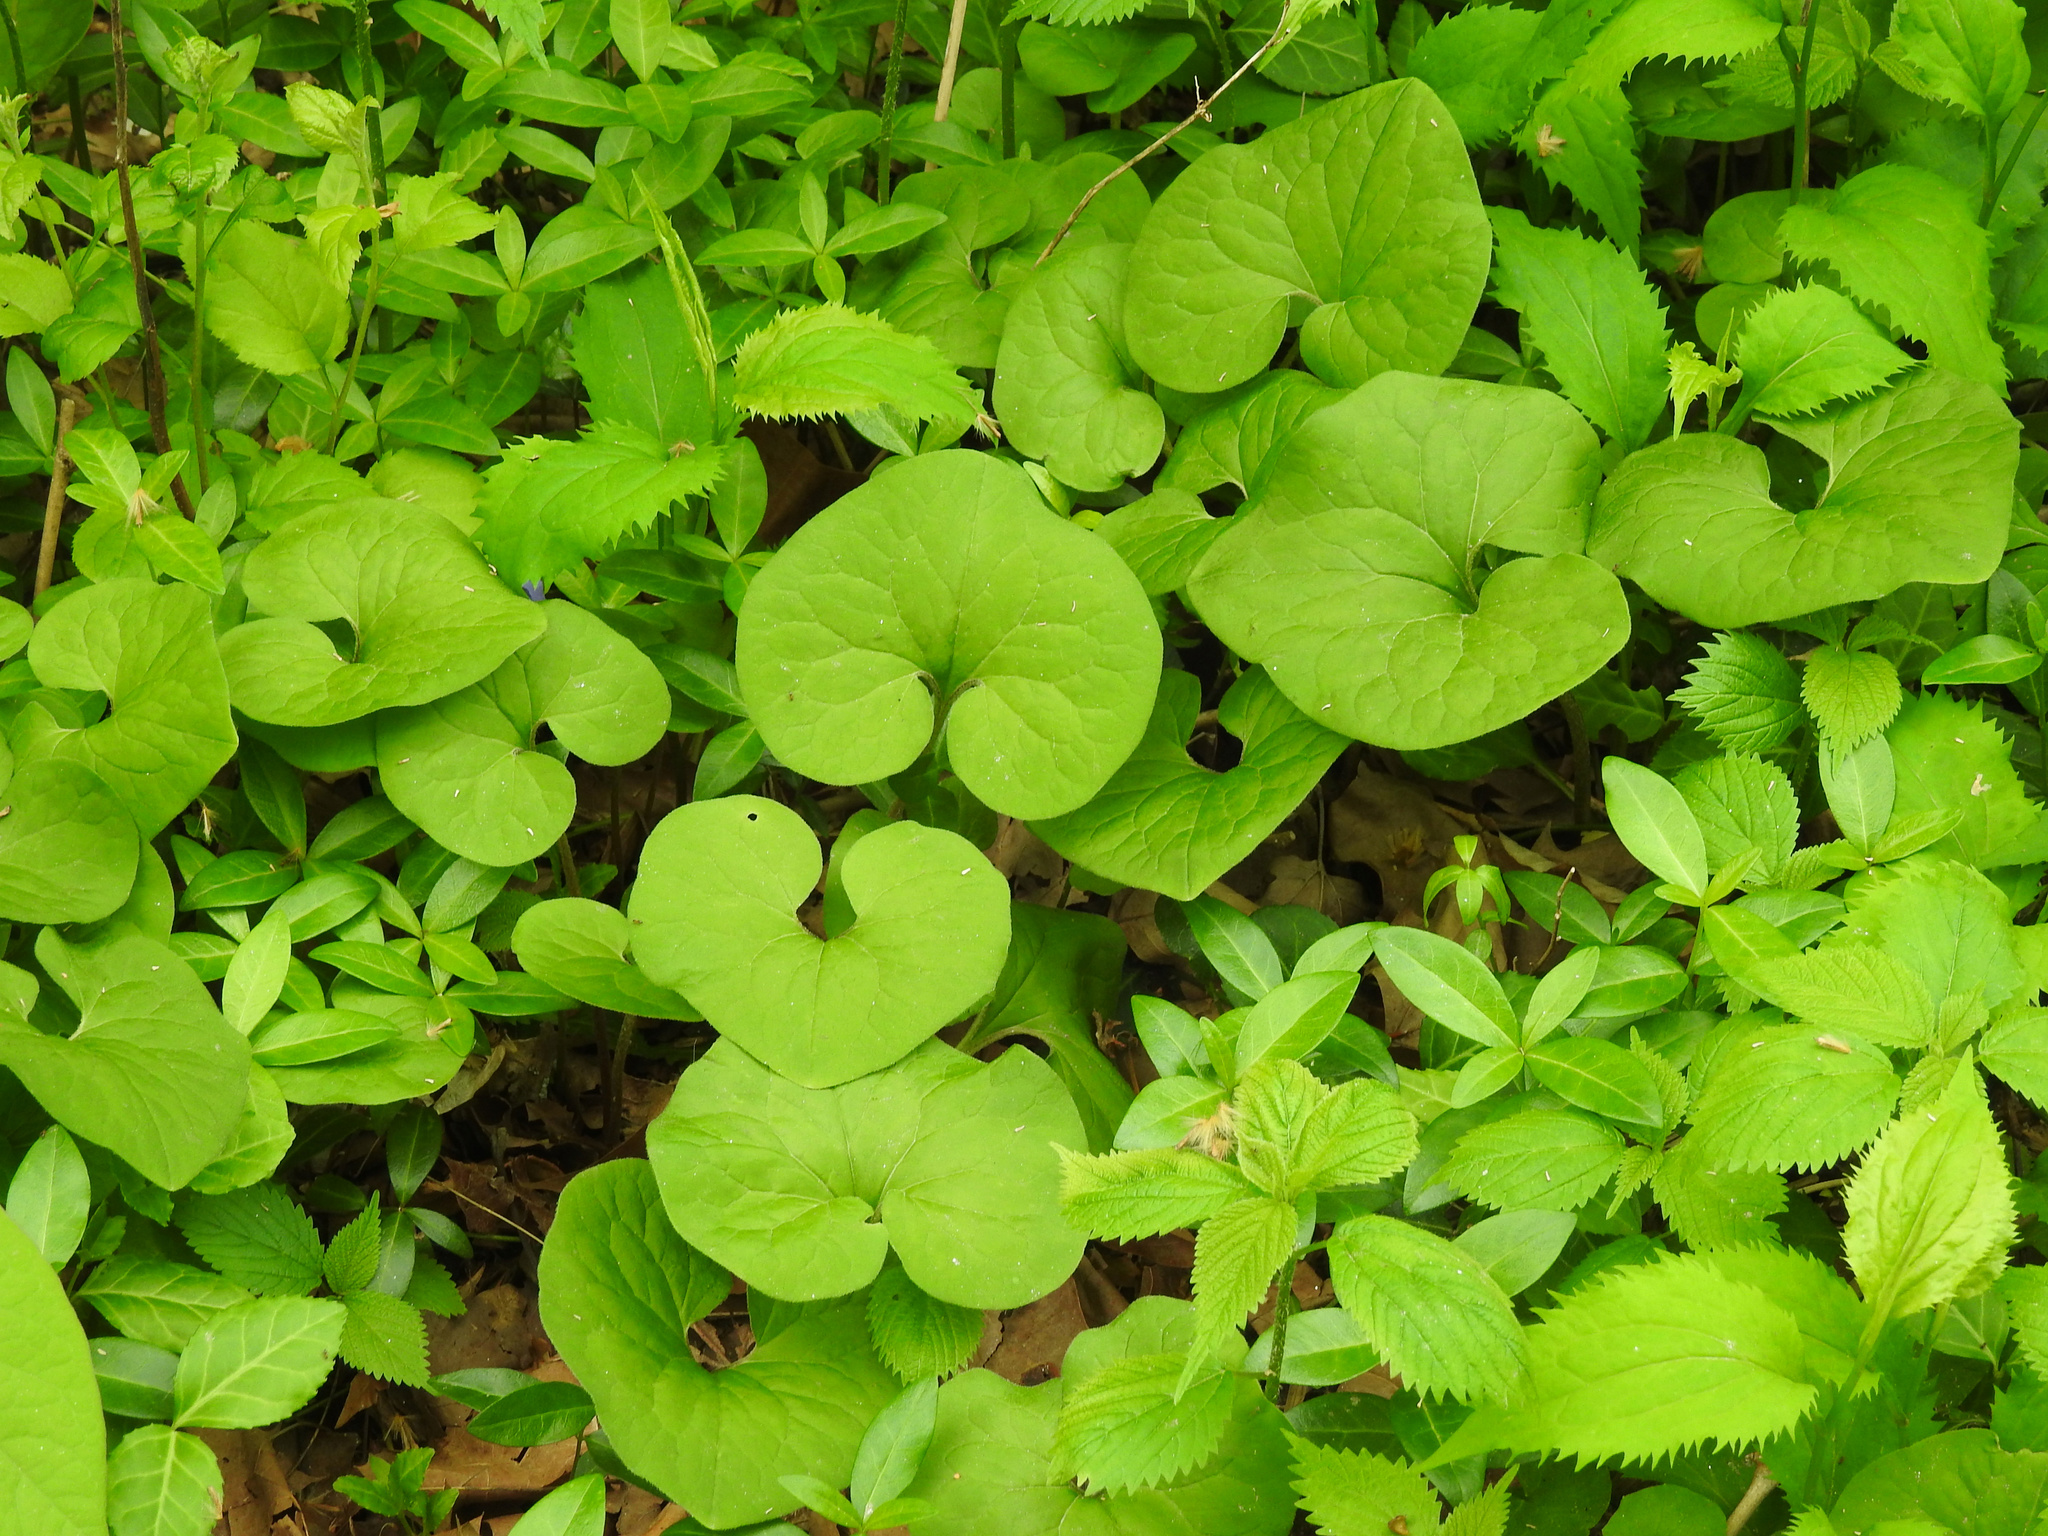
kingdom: Plantae
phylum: Tracheophyta
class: Magnoliopsida
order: Piperales
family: Aristolochiaceae
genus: Asarum
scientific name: Asarum canadense
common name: Wild ginger
